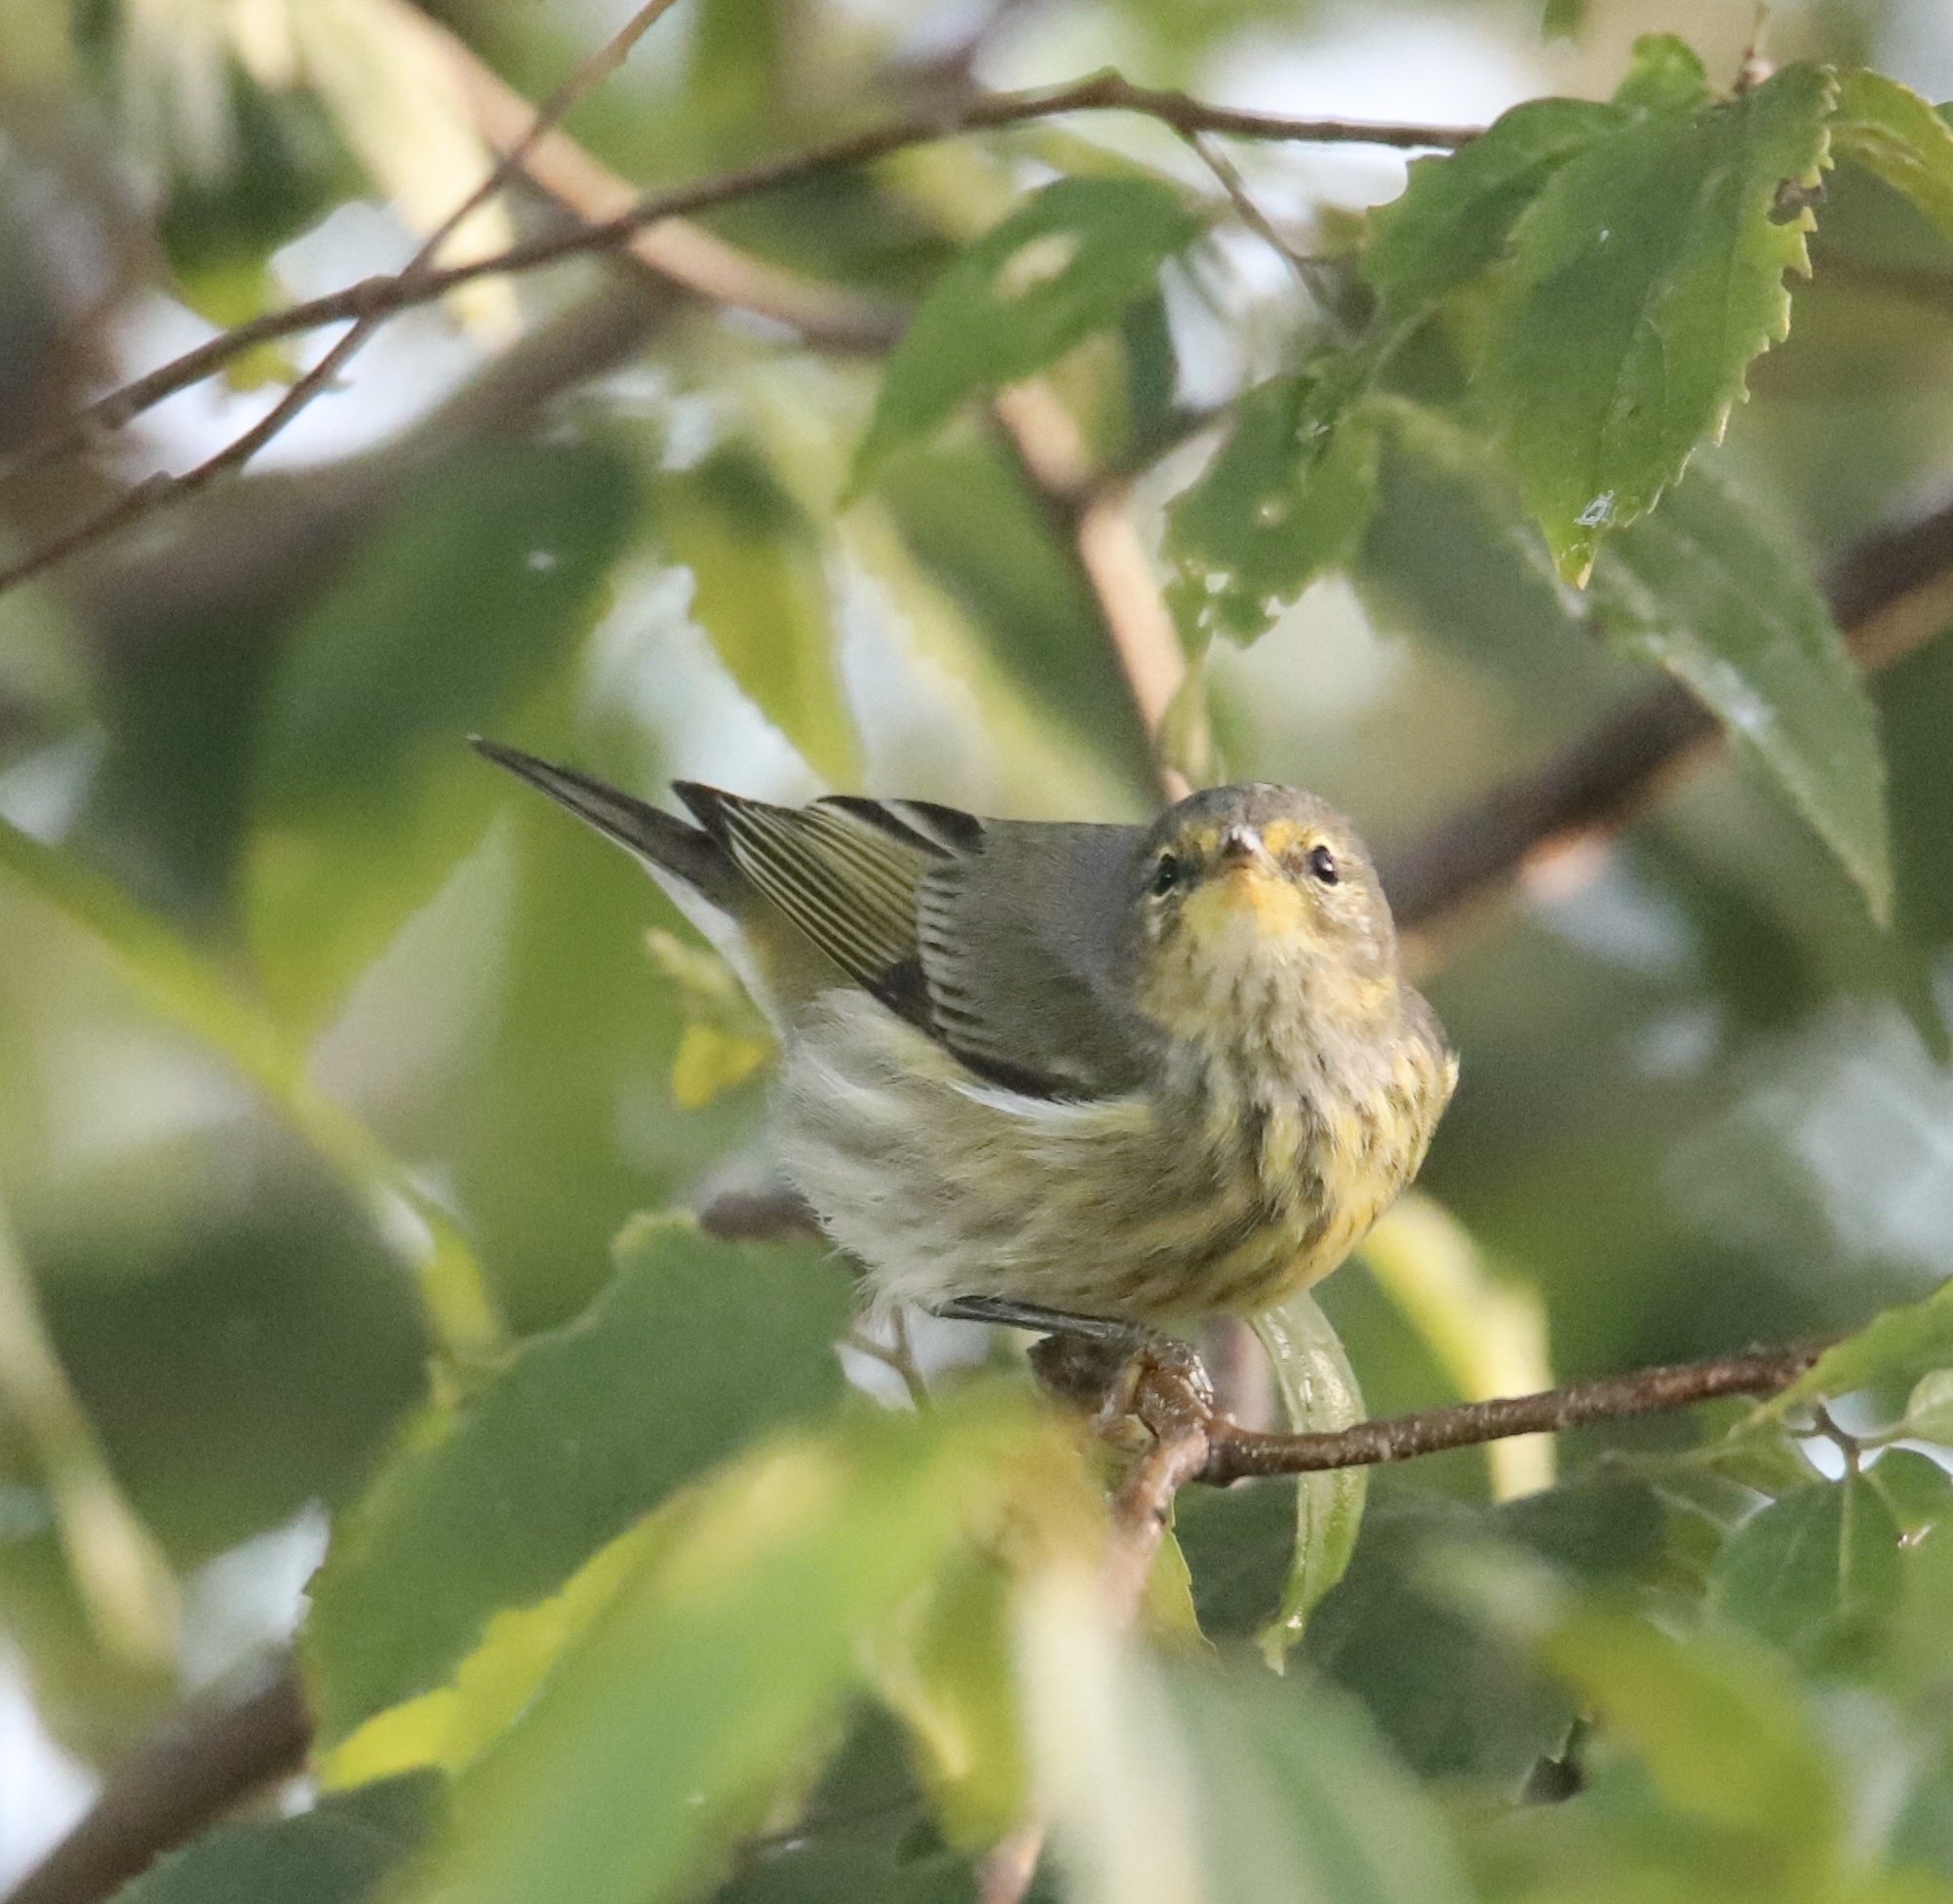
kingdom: Animalia
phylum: Chordata
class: Aves
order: Passeriformes
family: Parulidae
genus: Setophaga
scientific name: Setophaga tigrina
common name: Cape may warbler
